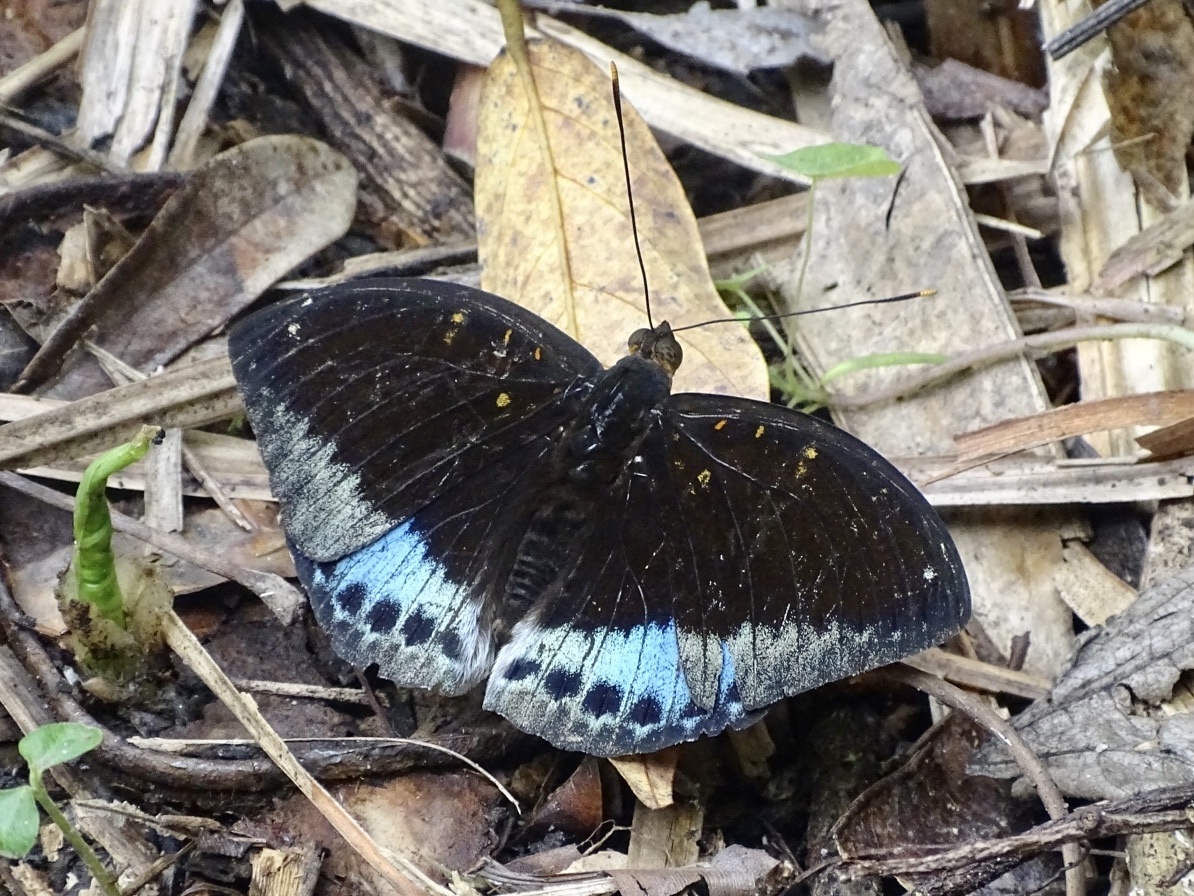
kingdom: Animalia
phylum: Arthropoda
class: Insecta
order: Lepidoptera
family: Nymphalidae
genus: Lexias
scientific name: Lexias pardalis
